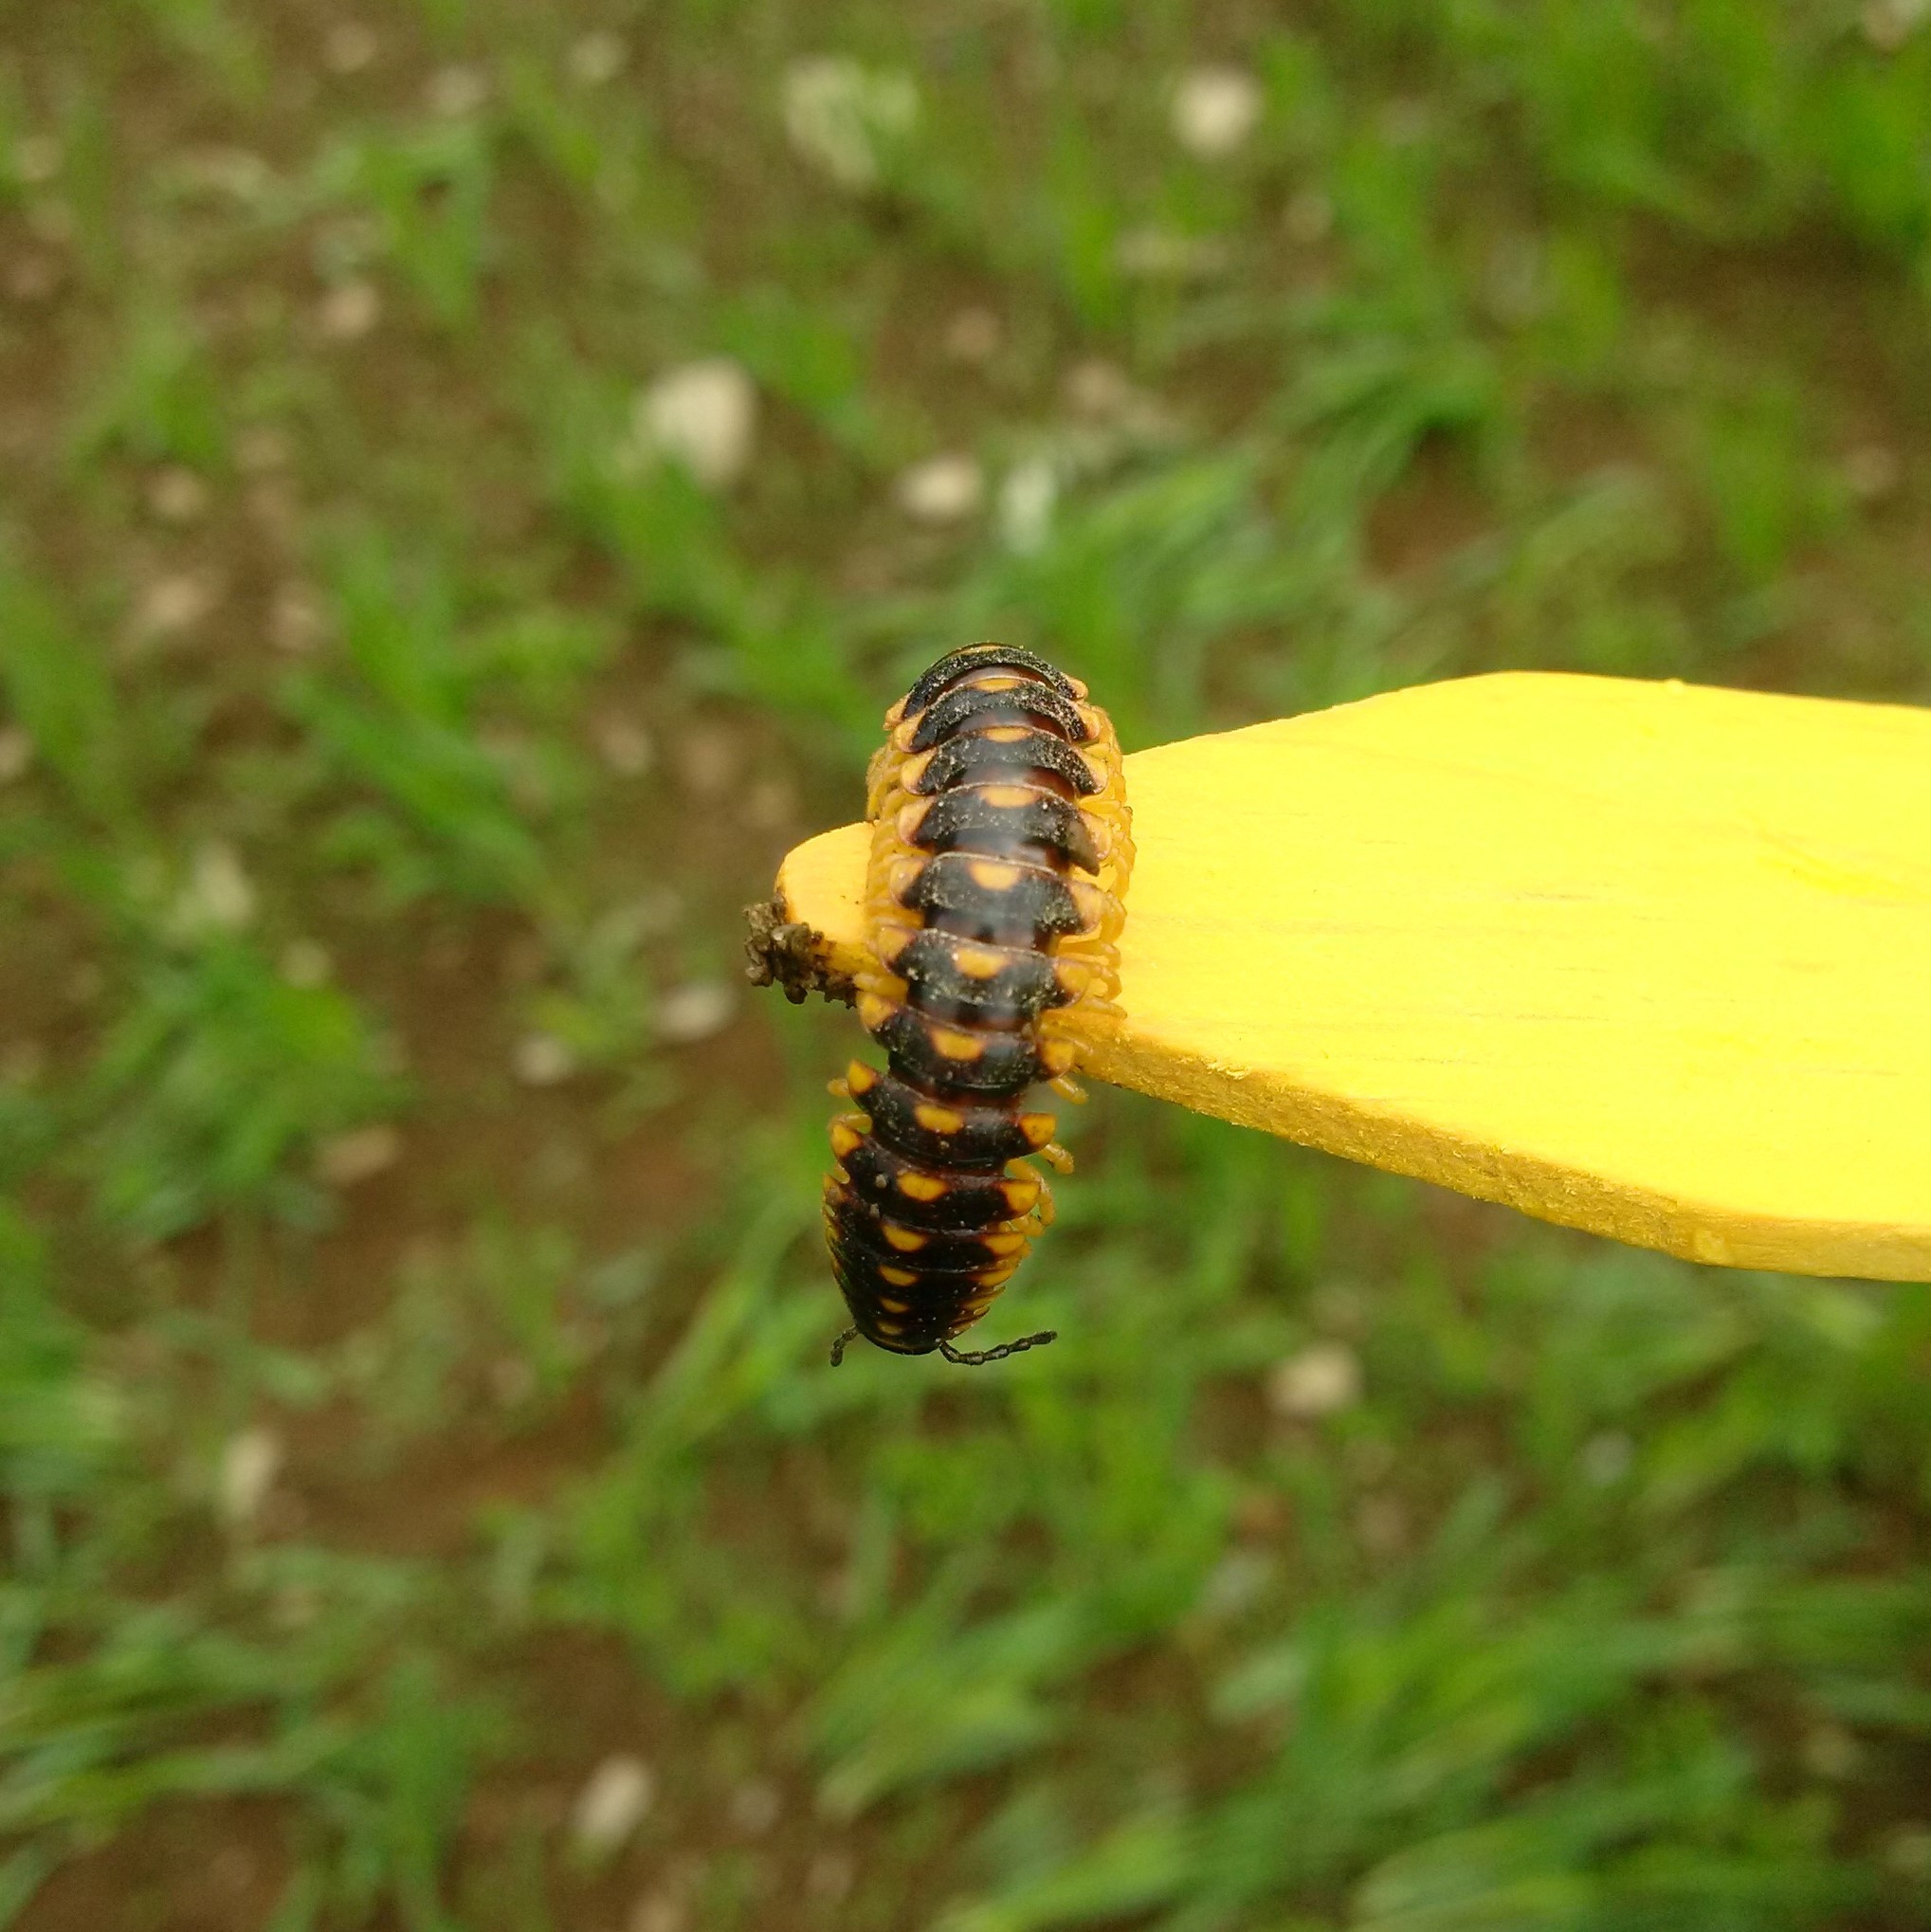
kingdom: Animalia
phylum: Arthropoda
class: Diplopoda
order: Polydesmida
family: Xystodesmidae
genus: Rudiloria
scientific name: Rudiloria trimaculata
